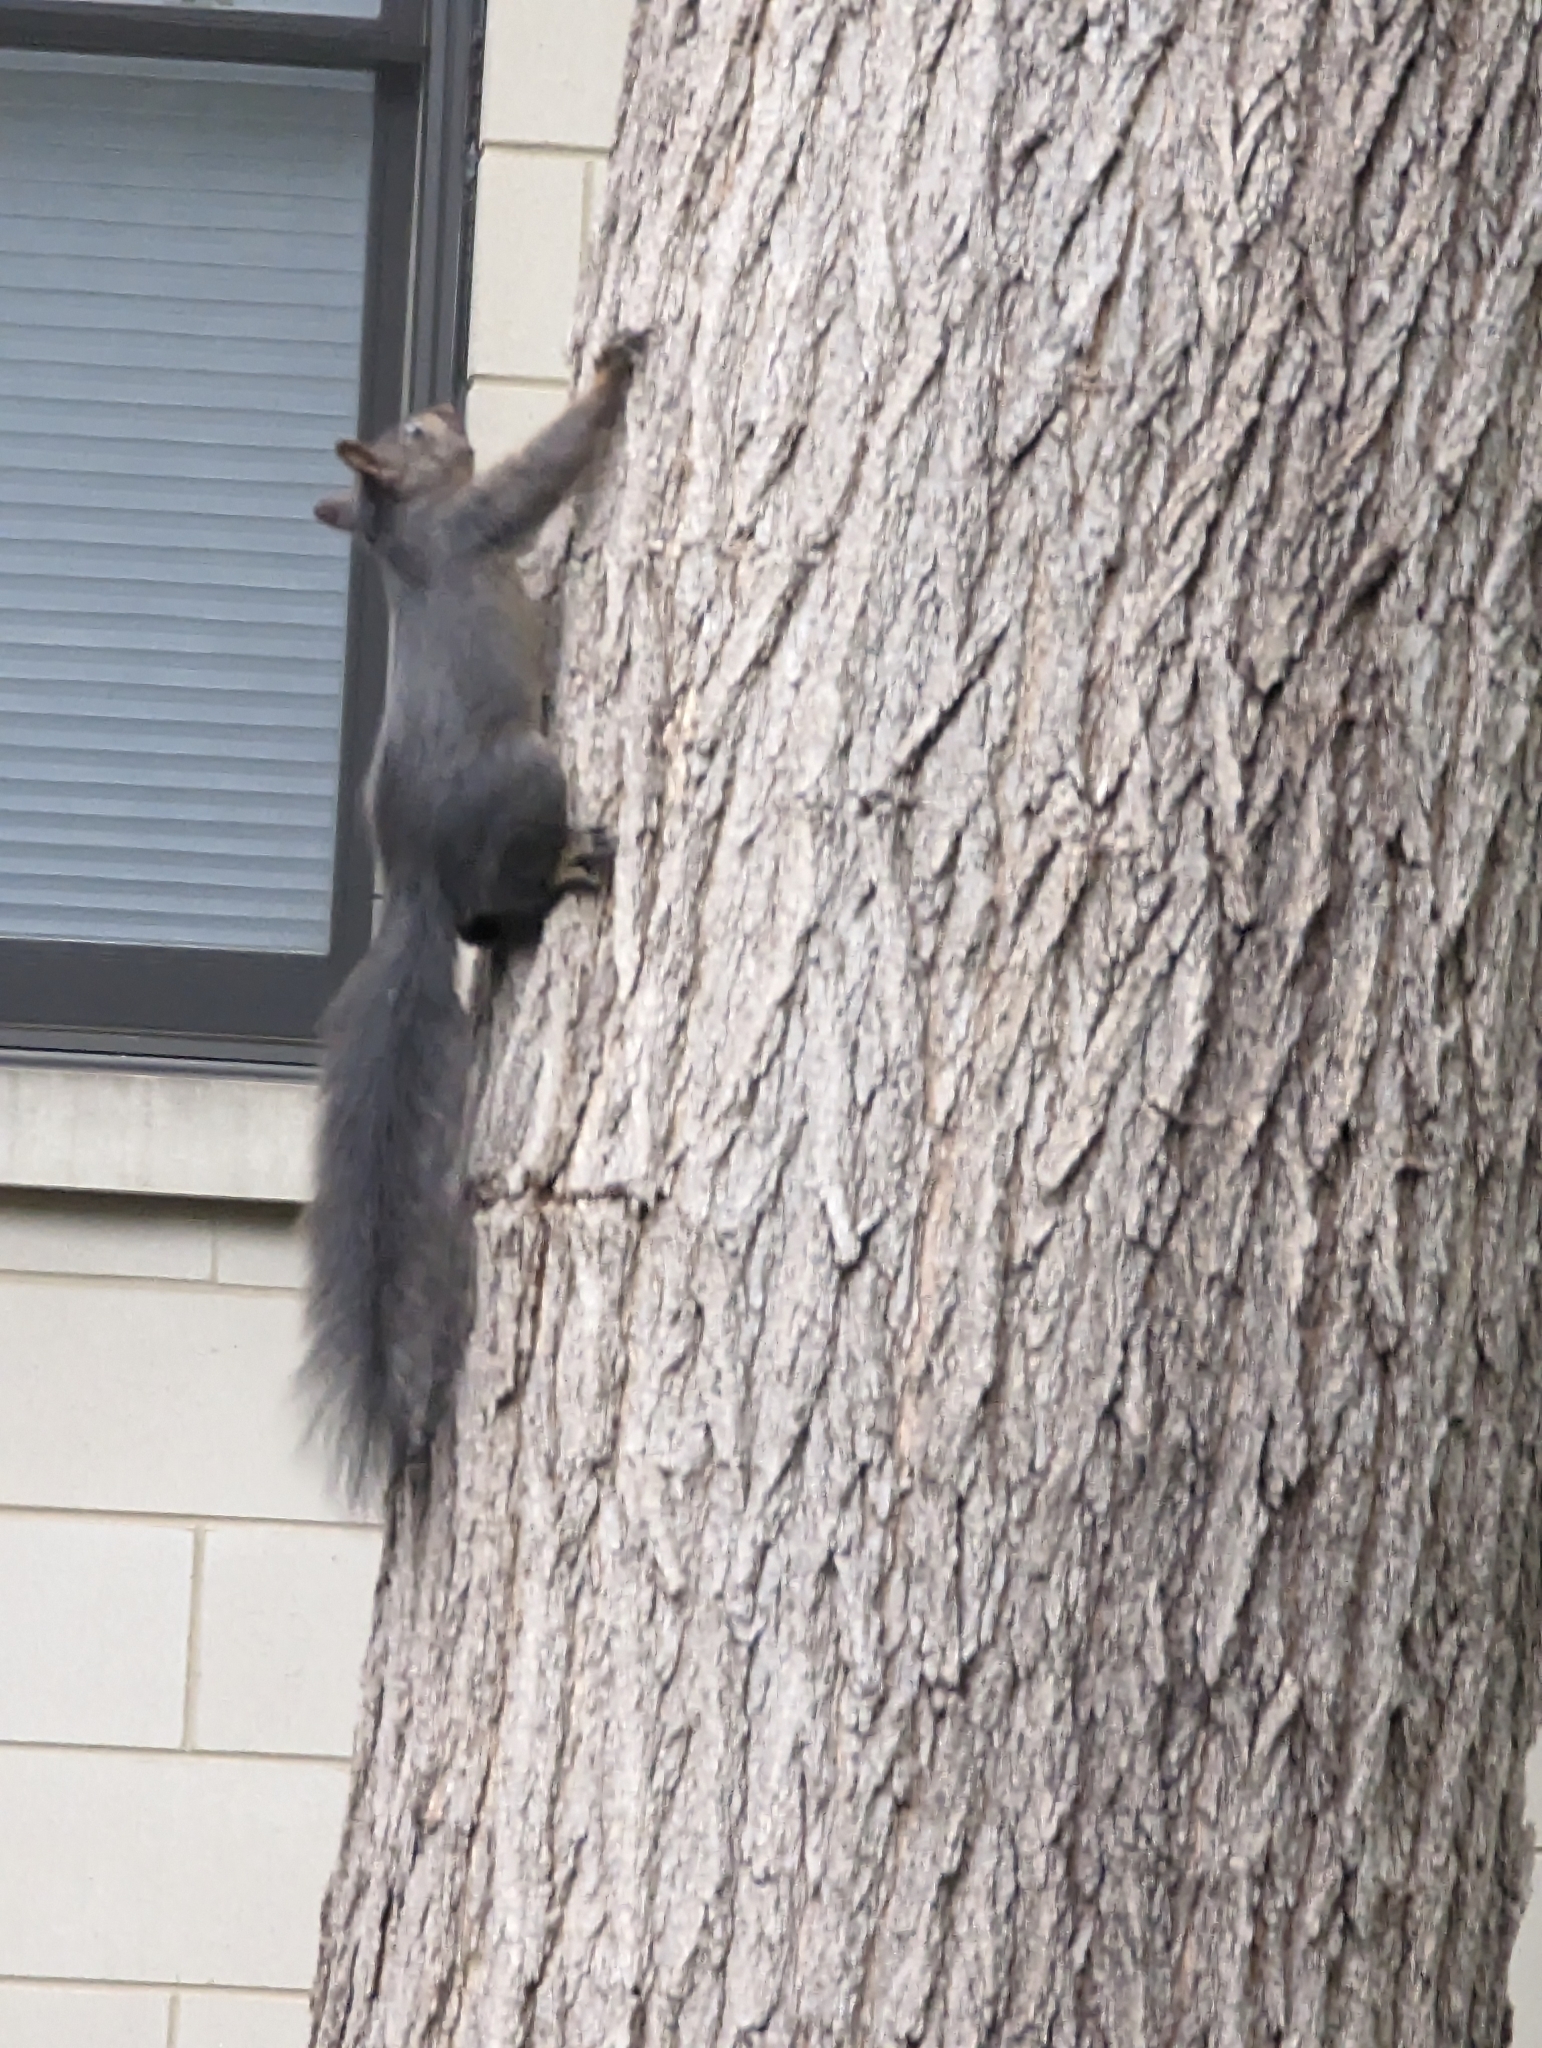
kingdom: Animalia
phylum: Chordata
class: Mammalia
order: Rodentia
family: Sciuridae
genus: Sciurus
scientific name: Sciurus carolinensis
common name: Eastern gray squirrel
